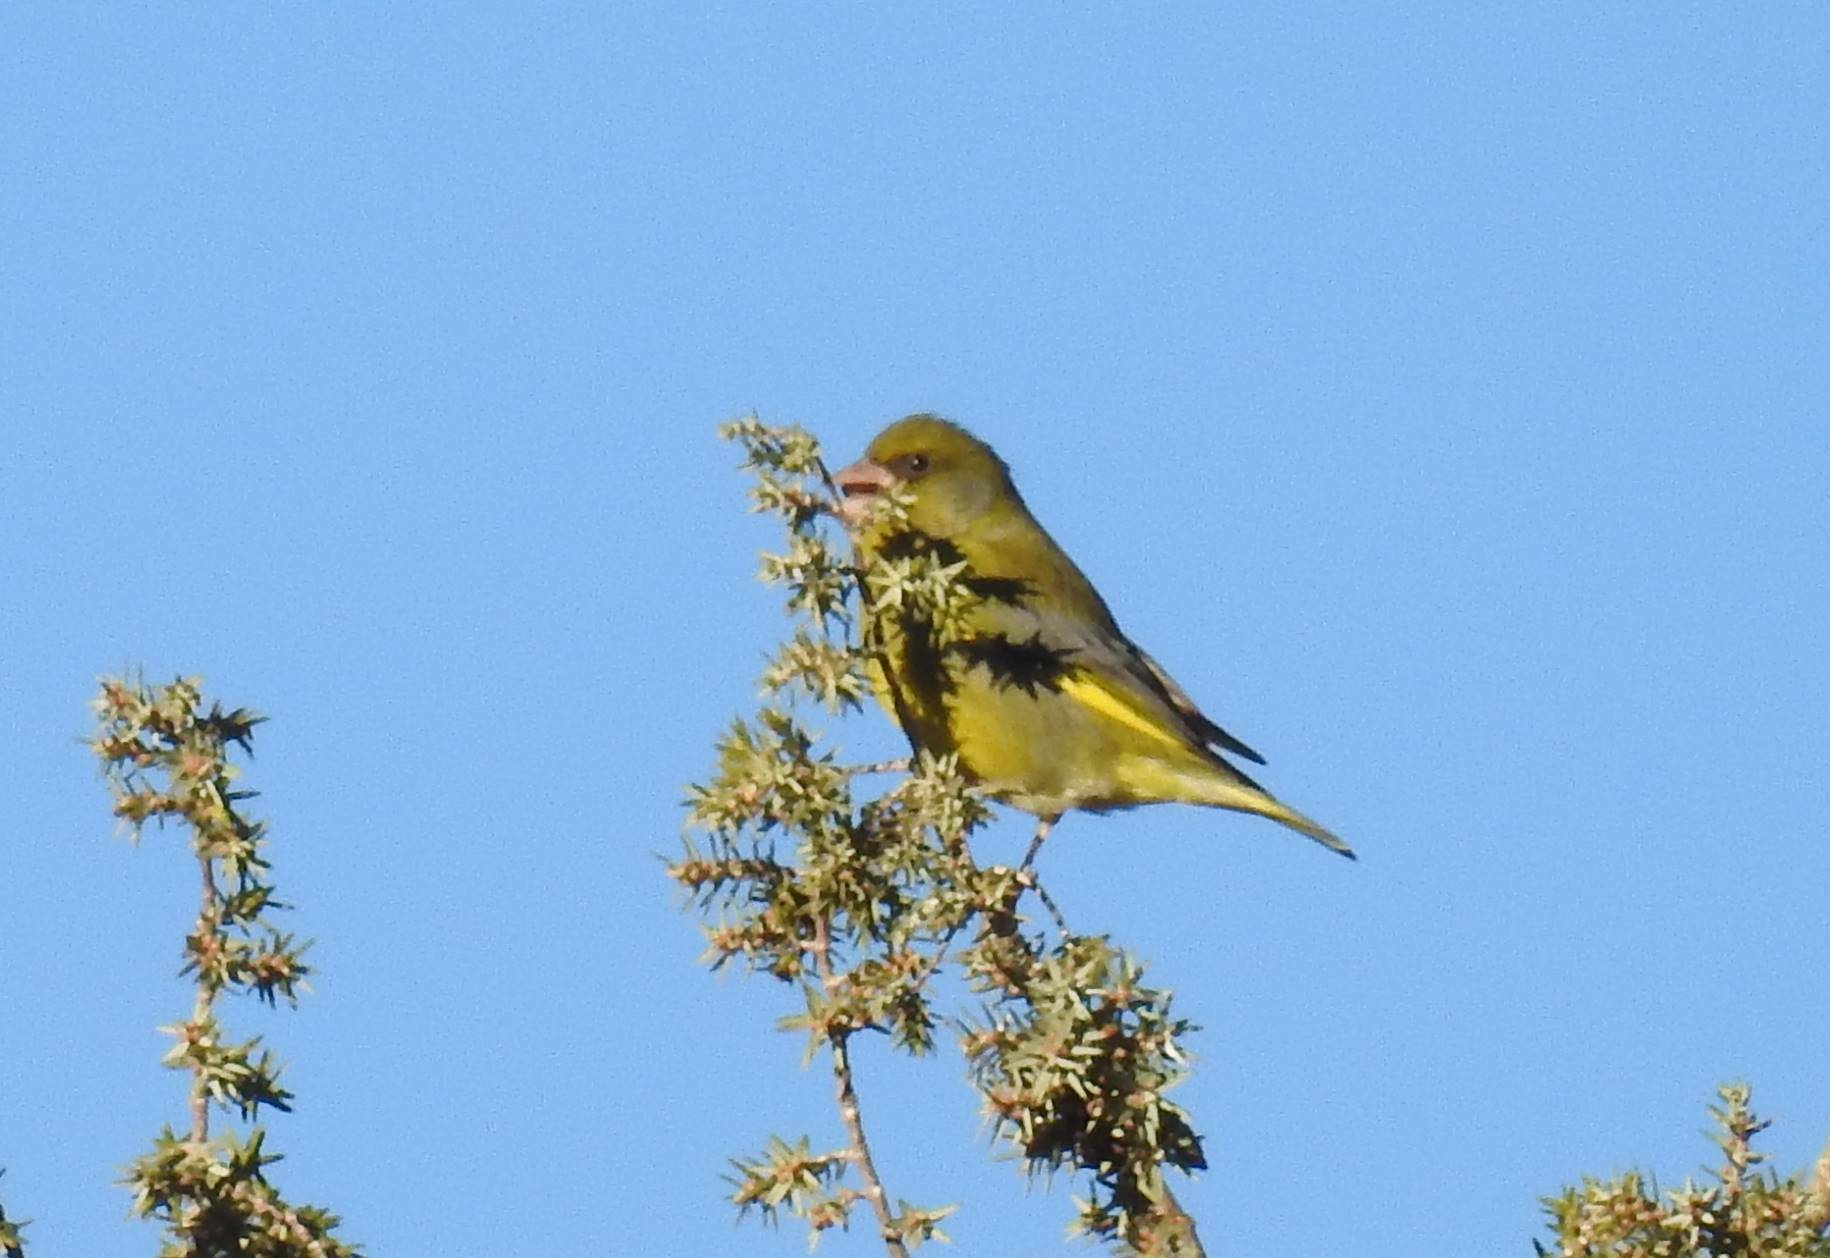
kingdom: Plantae
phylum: Tracheophyta
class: Liliopsida
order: Poales
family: Poaceae
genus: Chloris
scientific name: Chloris chloris
